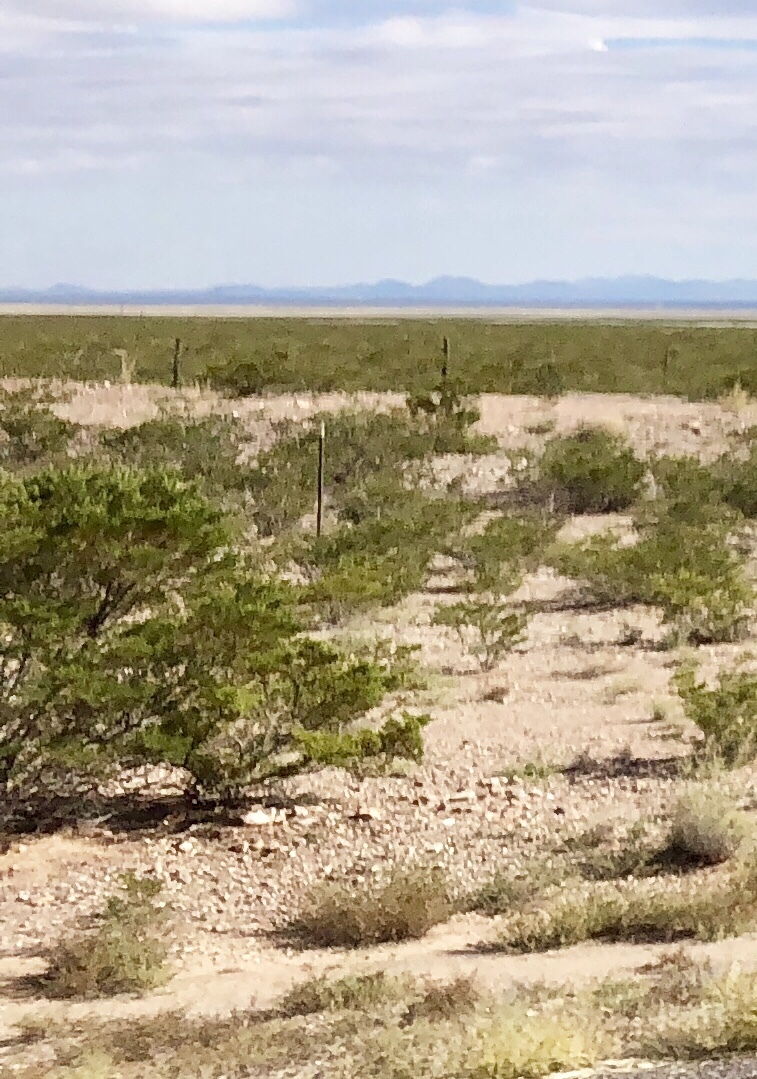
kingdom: Plantae
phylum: Tracheophyta
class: Magnoliopsida
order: Zygophyllales
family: Zygophyllaceae
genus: Larrea
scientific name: Larrea tridentata
